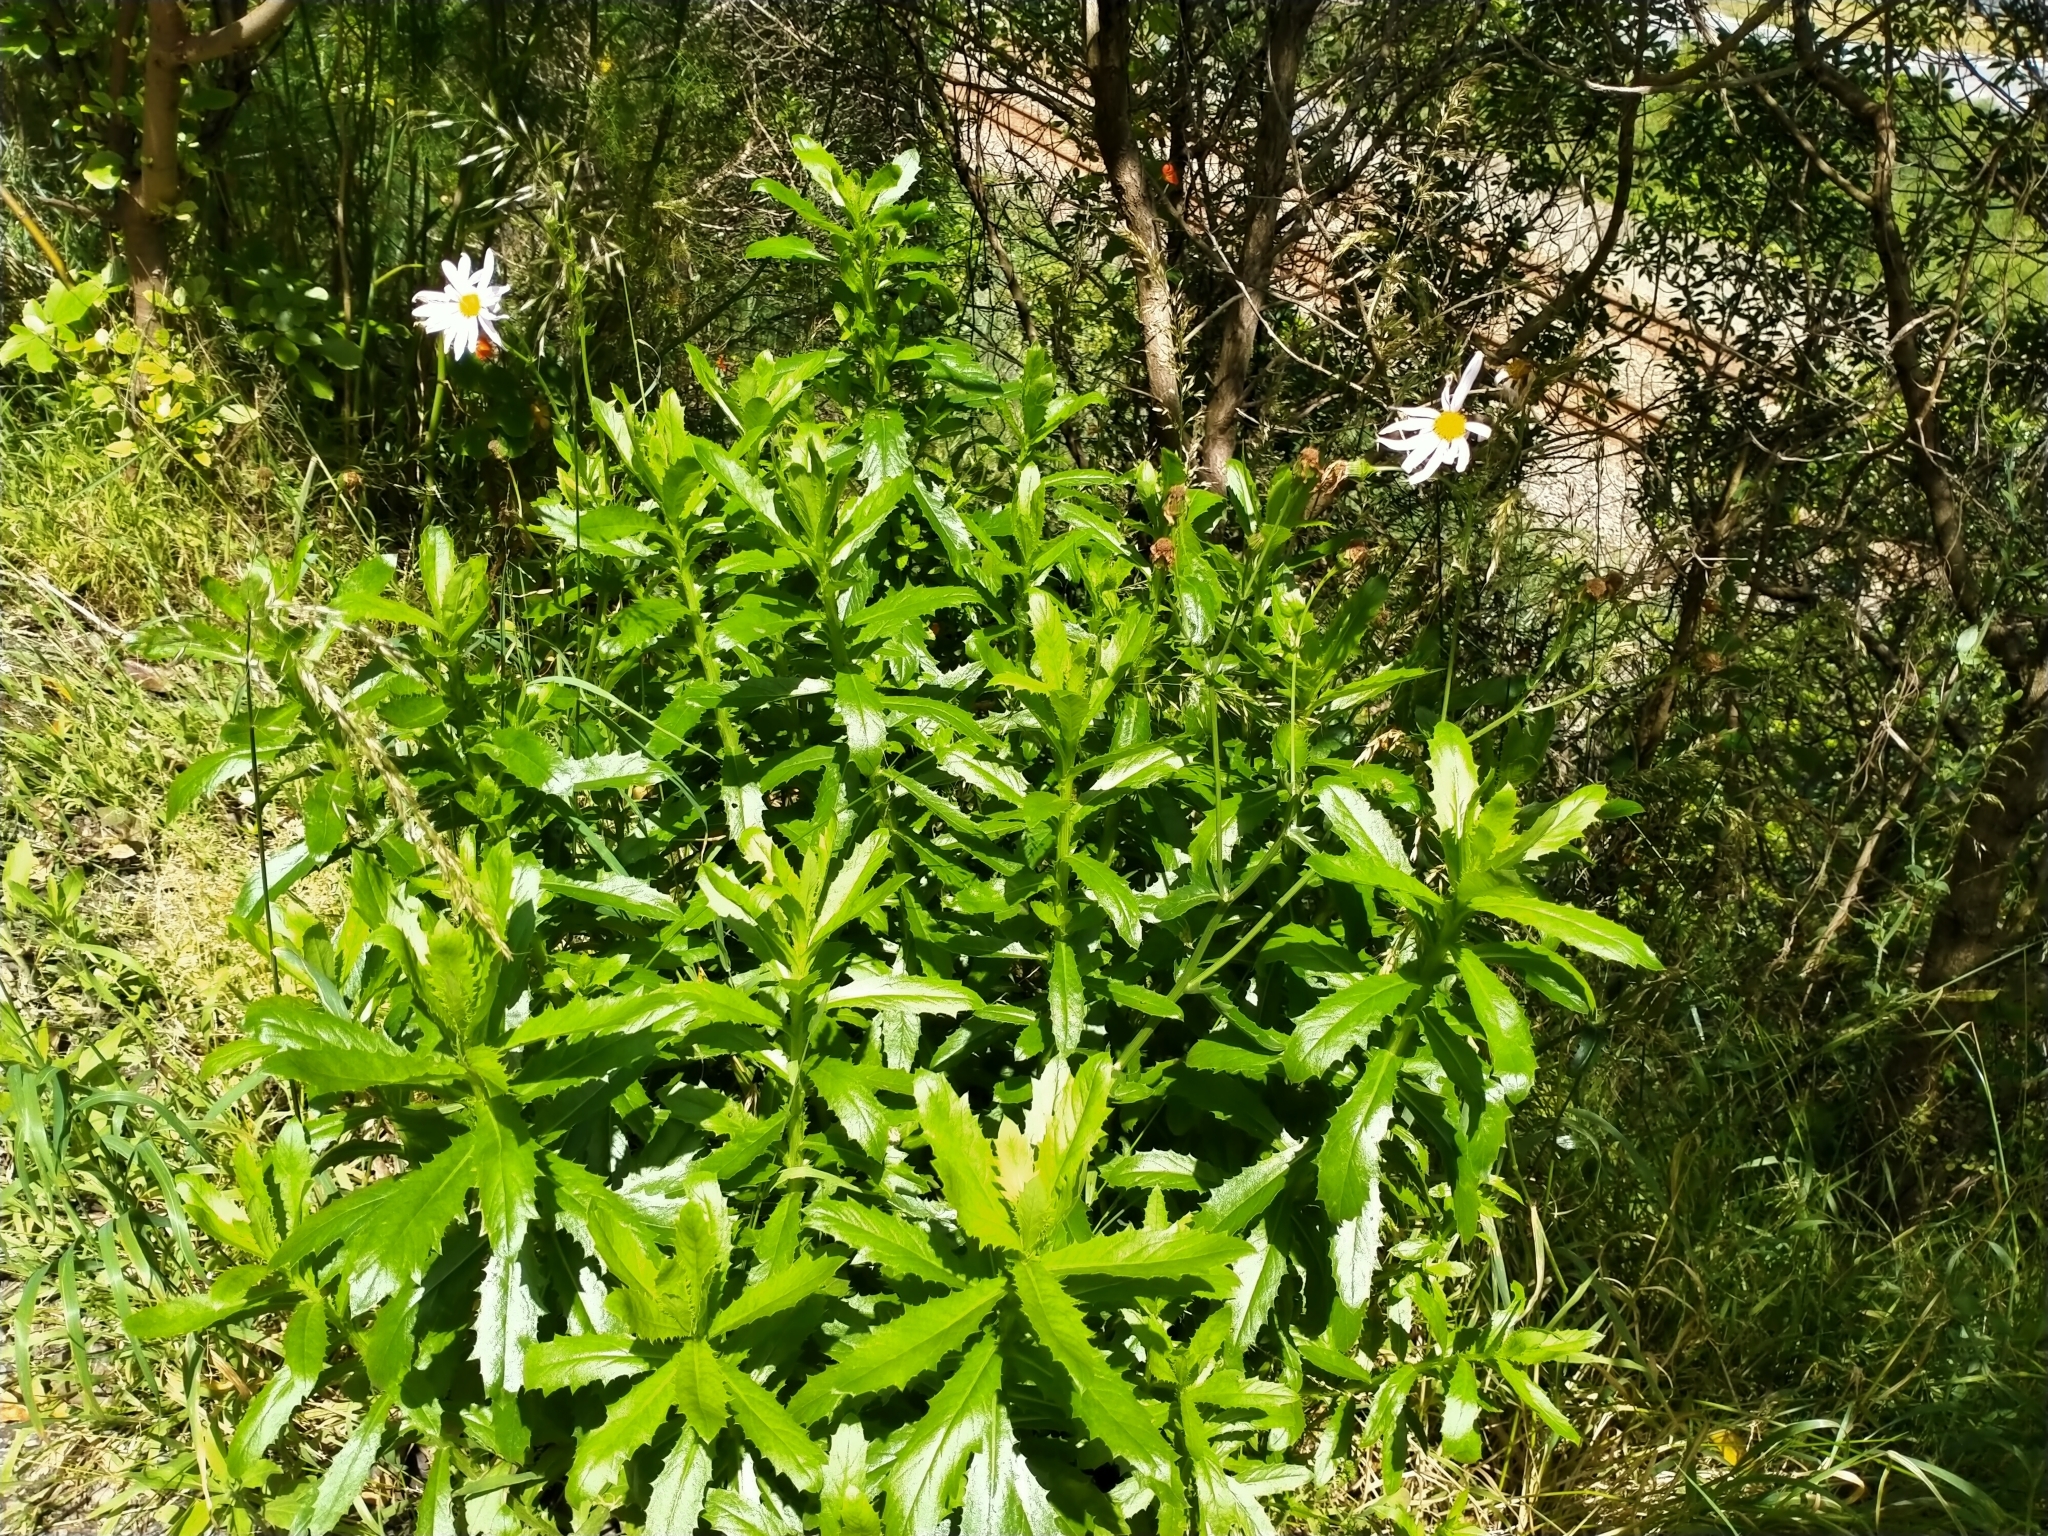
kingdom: Plantae
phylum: Tracheophyta
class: Magnoliopsida
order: Asterales
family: Asteraceae
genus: Senecio
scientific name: Senecio glastifolius
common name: Woad-leaved ragwort
